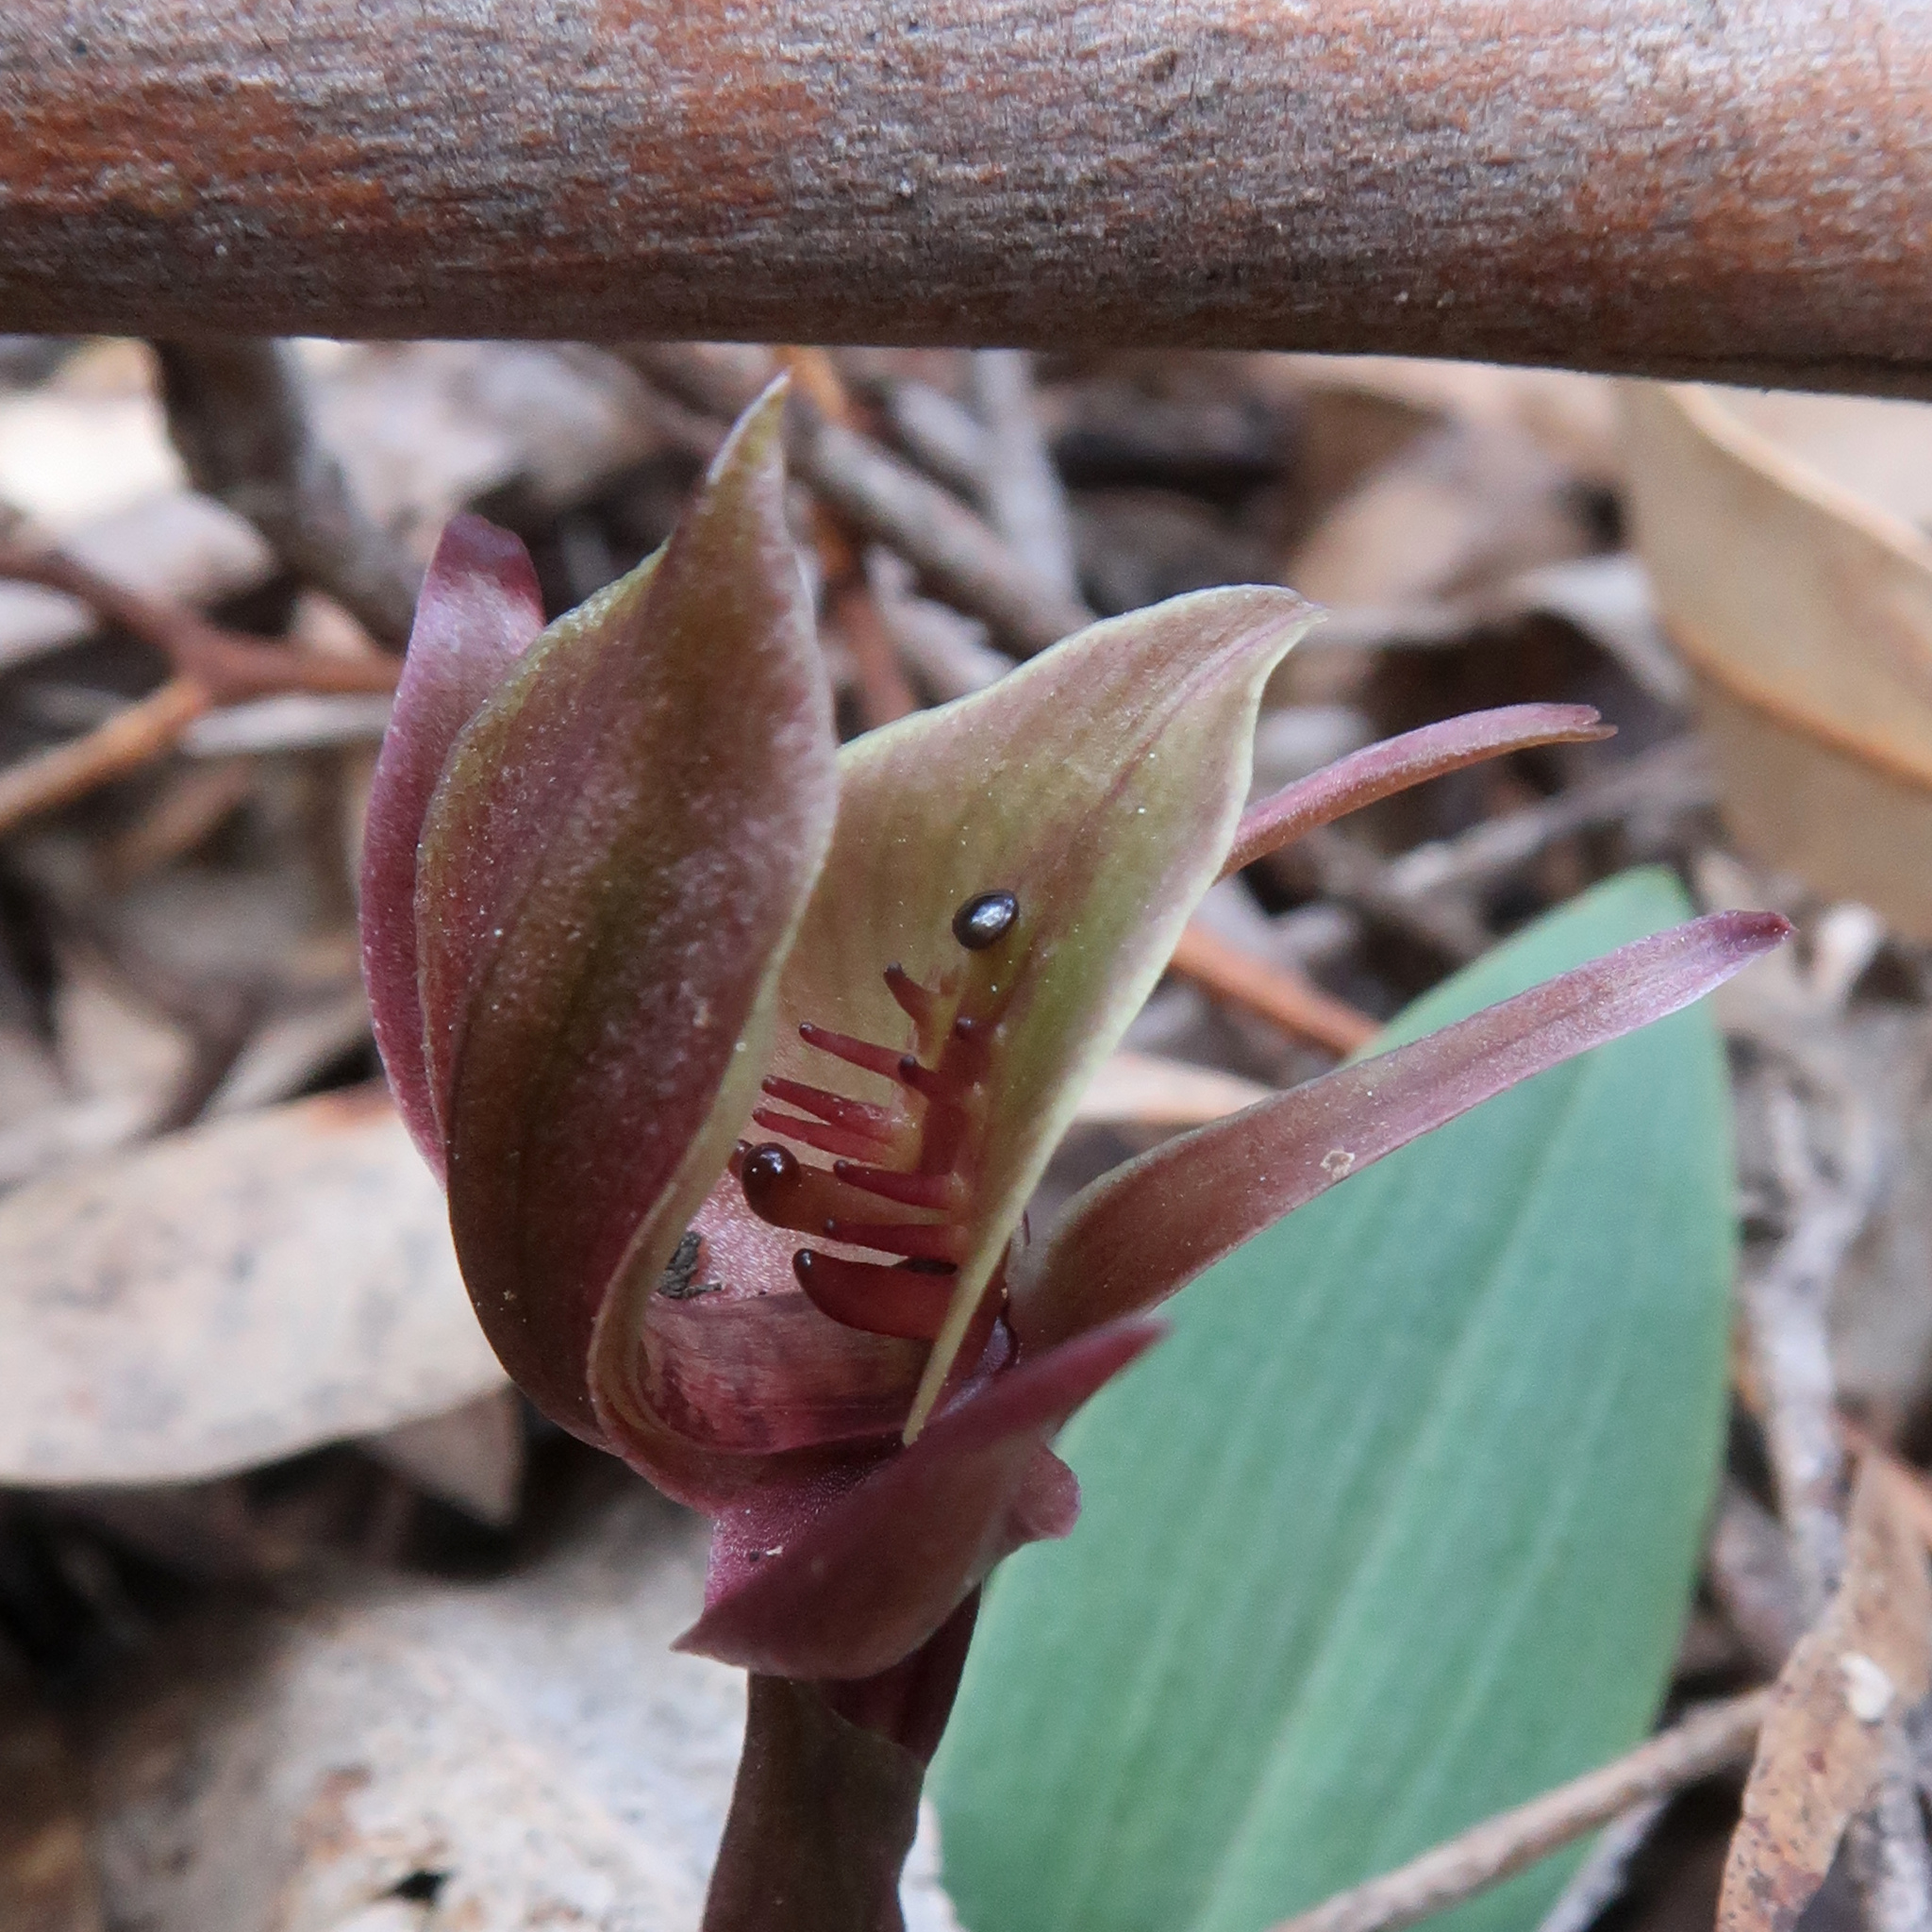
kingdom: Plantae
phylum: Tracheophyta
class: Liliopsida
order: Asparagales
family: Orchidaceae
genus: Chiloglottis
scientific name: Chiloglottis triceratops
